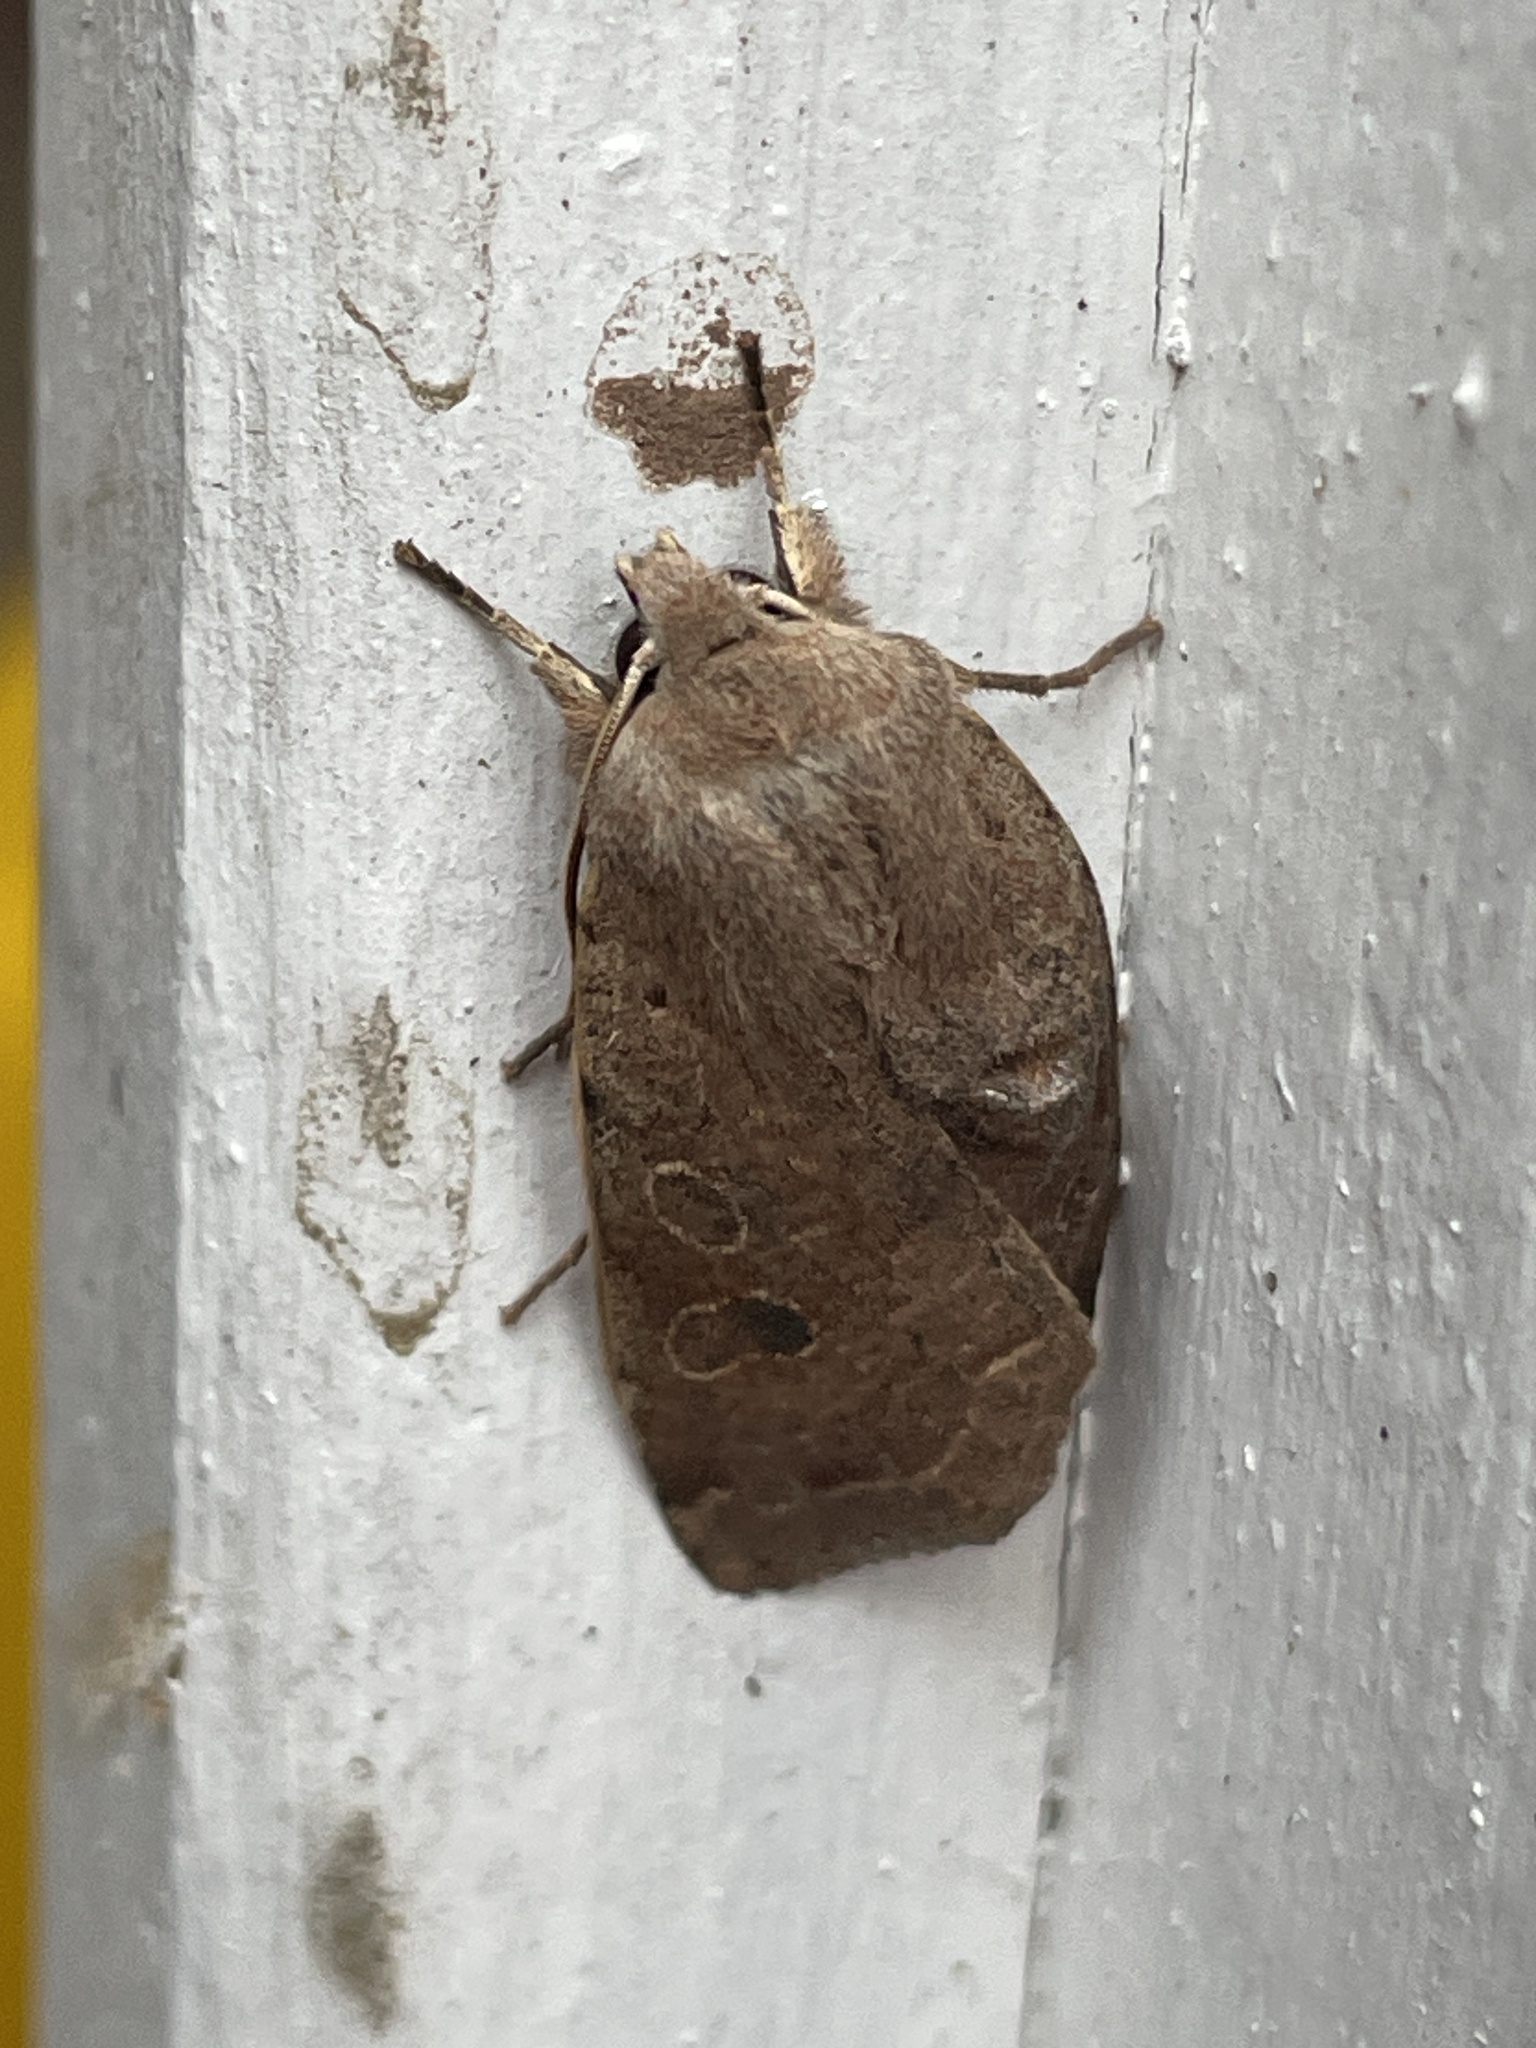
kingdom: Animalia
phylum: Arthropoda
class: Insecta
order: Lepidoptera
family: Noctuidae
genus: Orthosia
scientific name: Orthosia hibisci
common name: Green fruitworm
